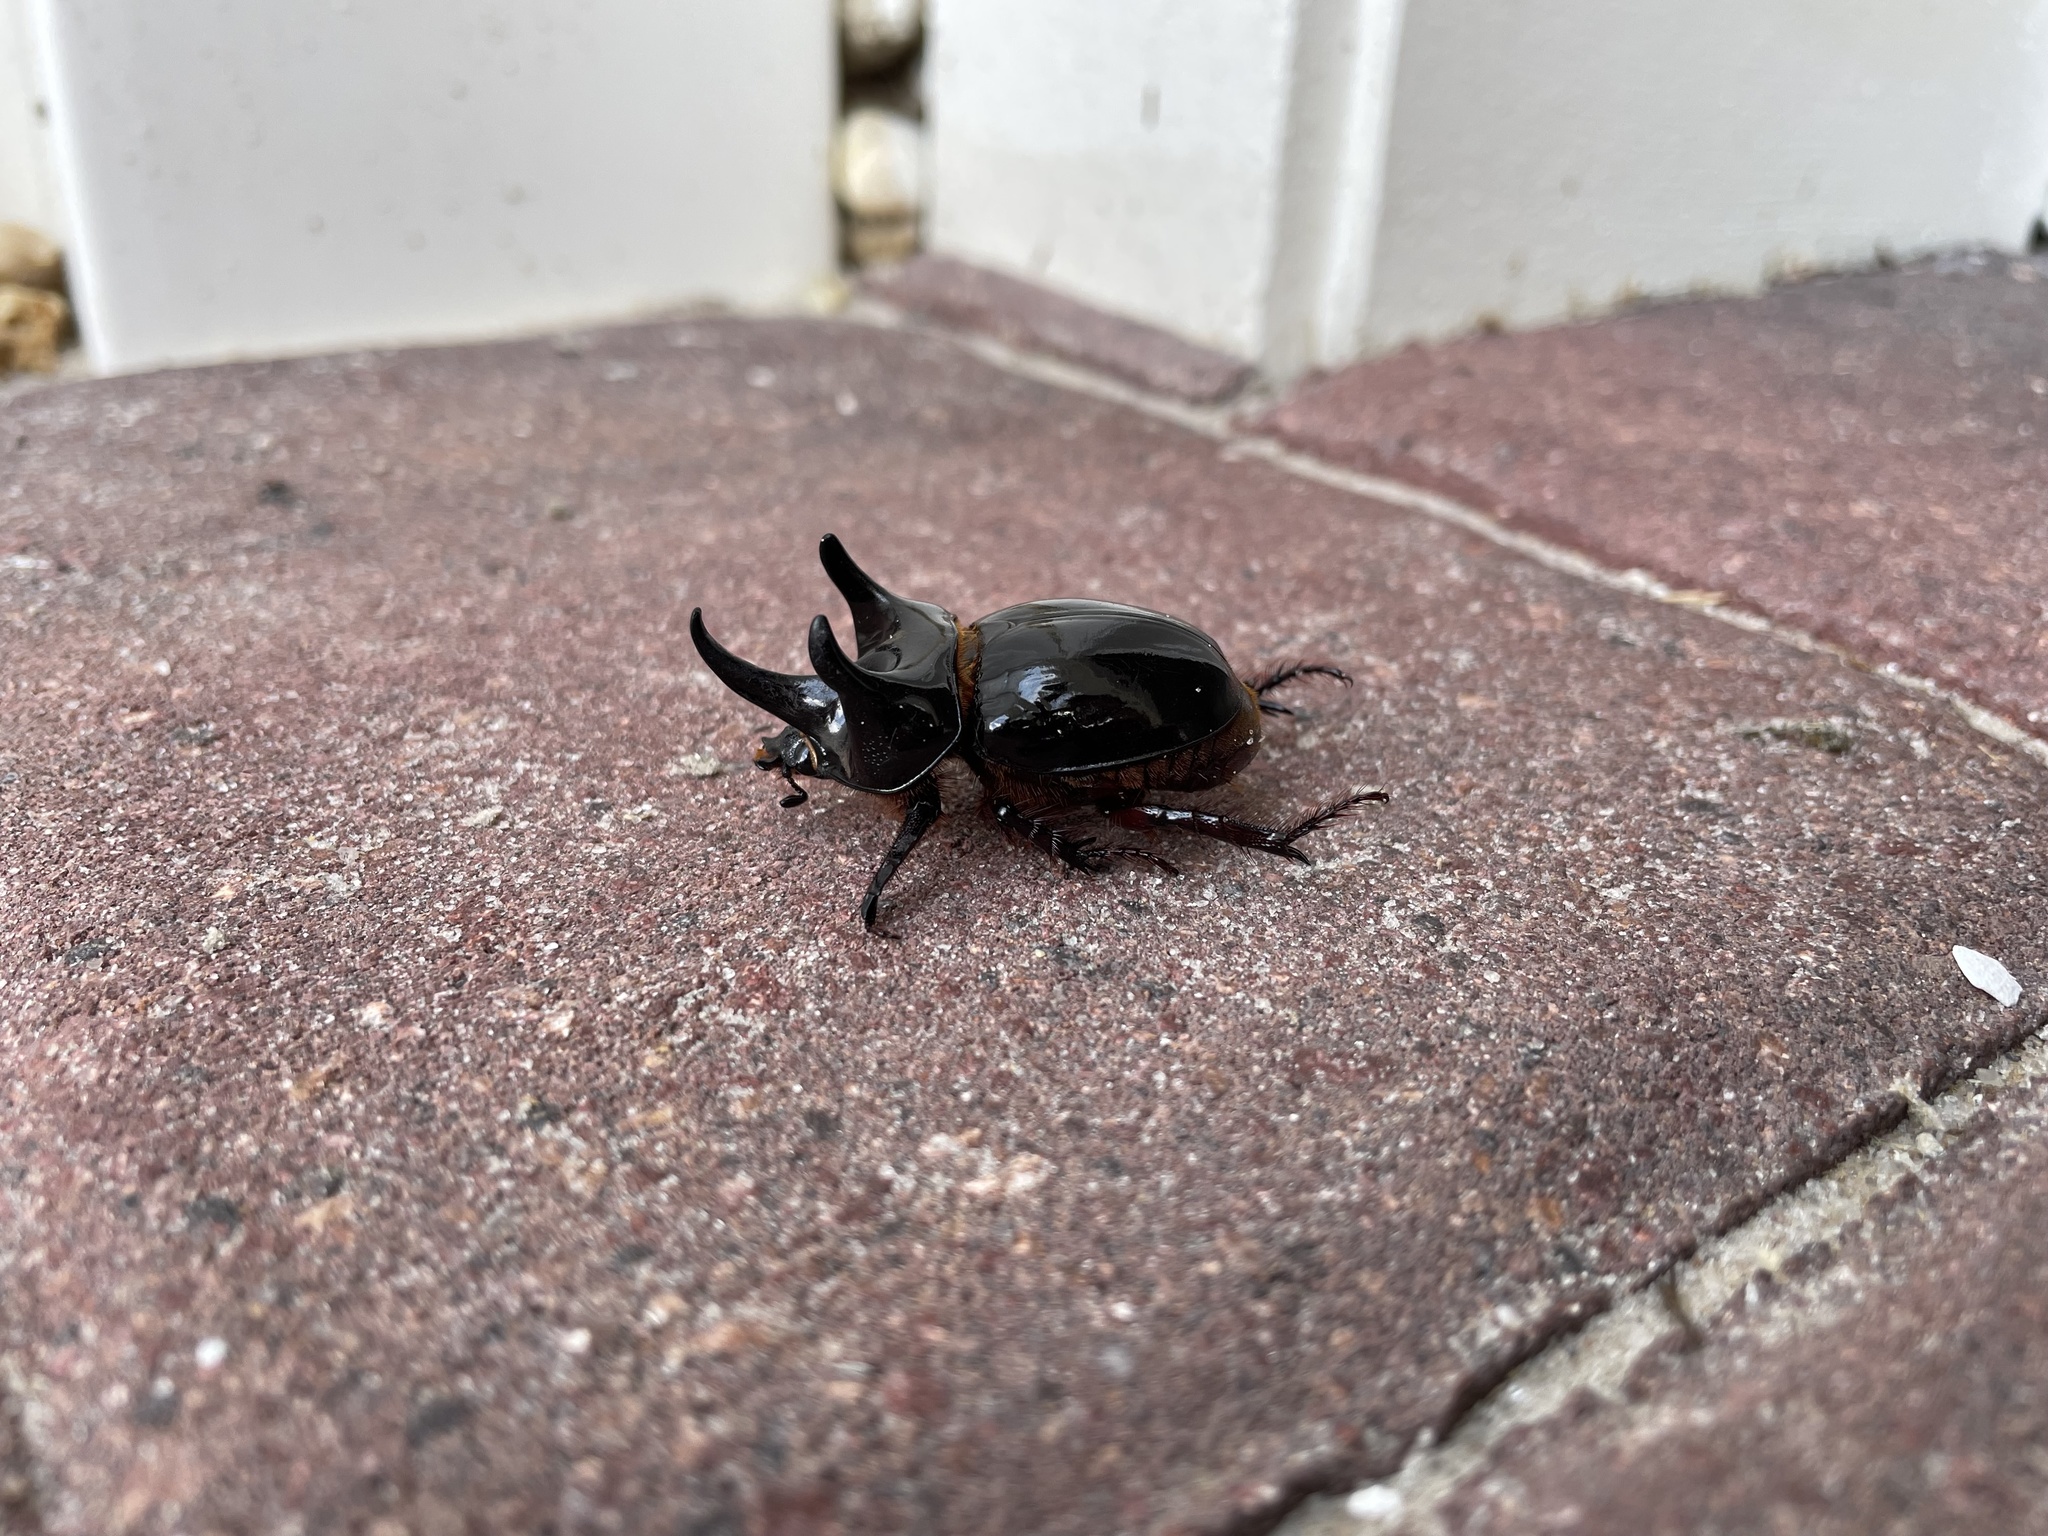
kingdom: Animalia
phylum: Arthropoda
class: Insecta
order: Coleoptera
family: Scarabaeidae
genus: Strategus
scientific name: Strategus antaeus
